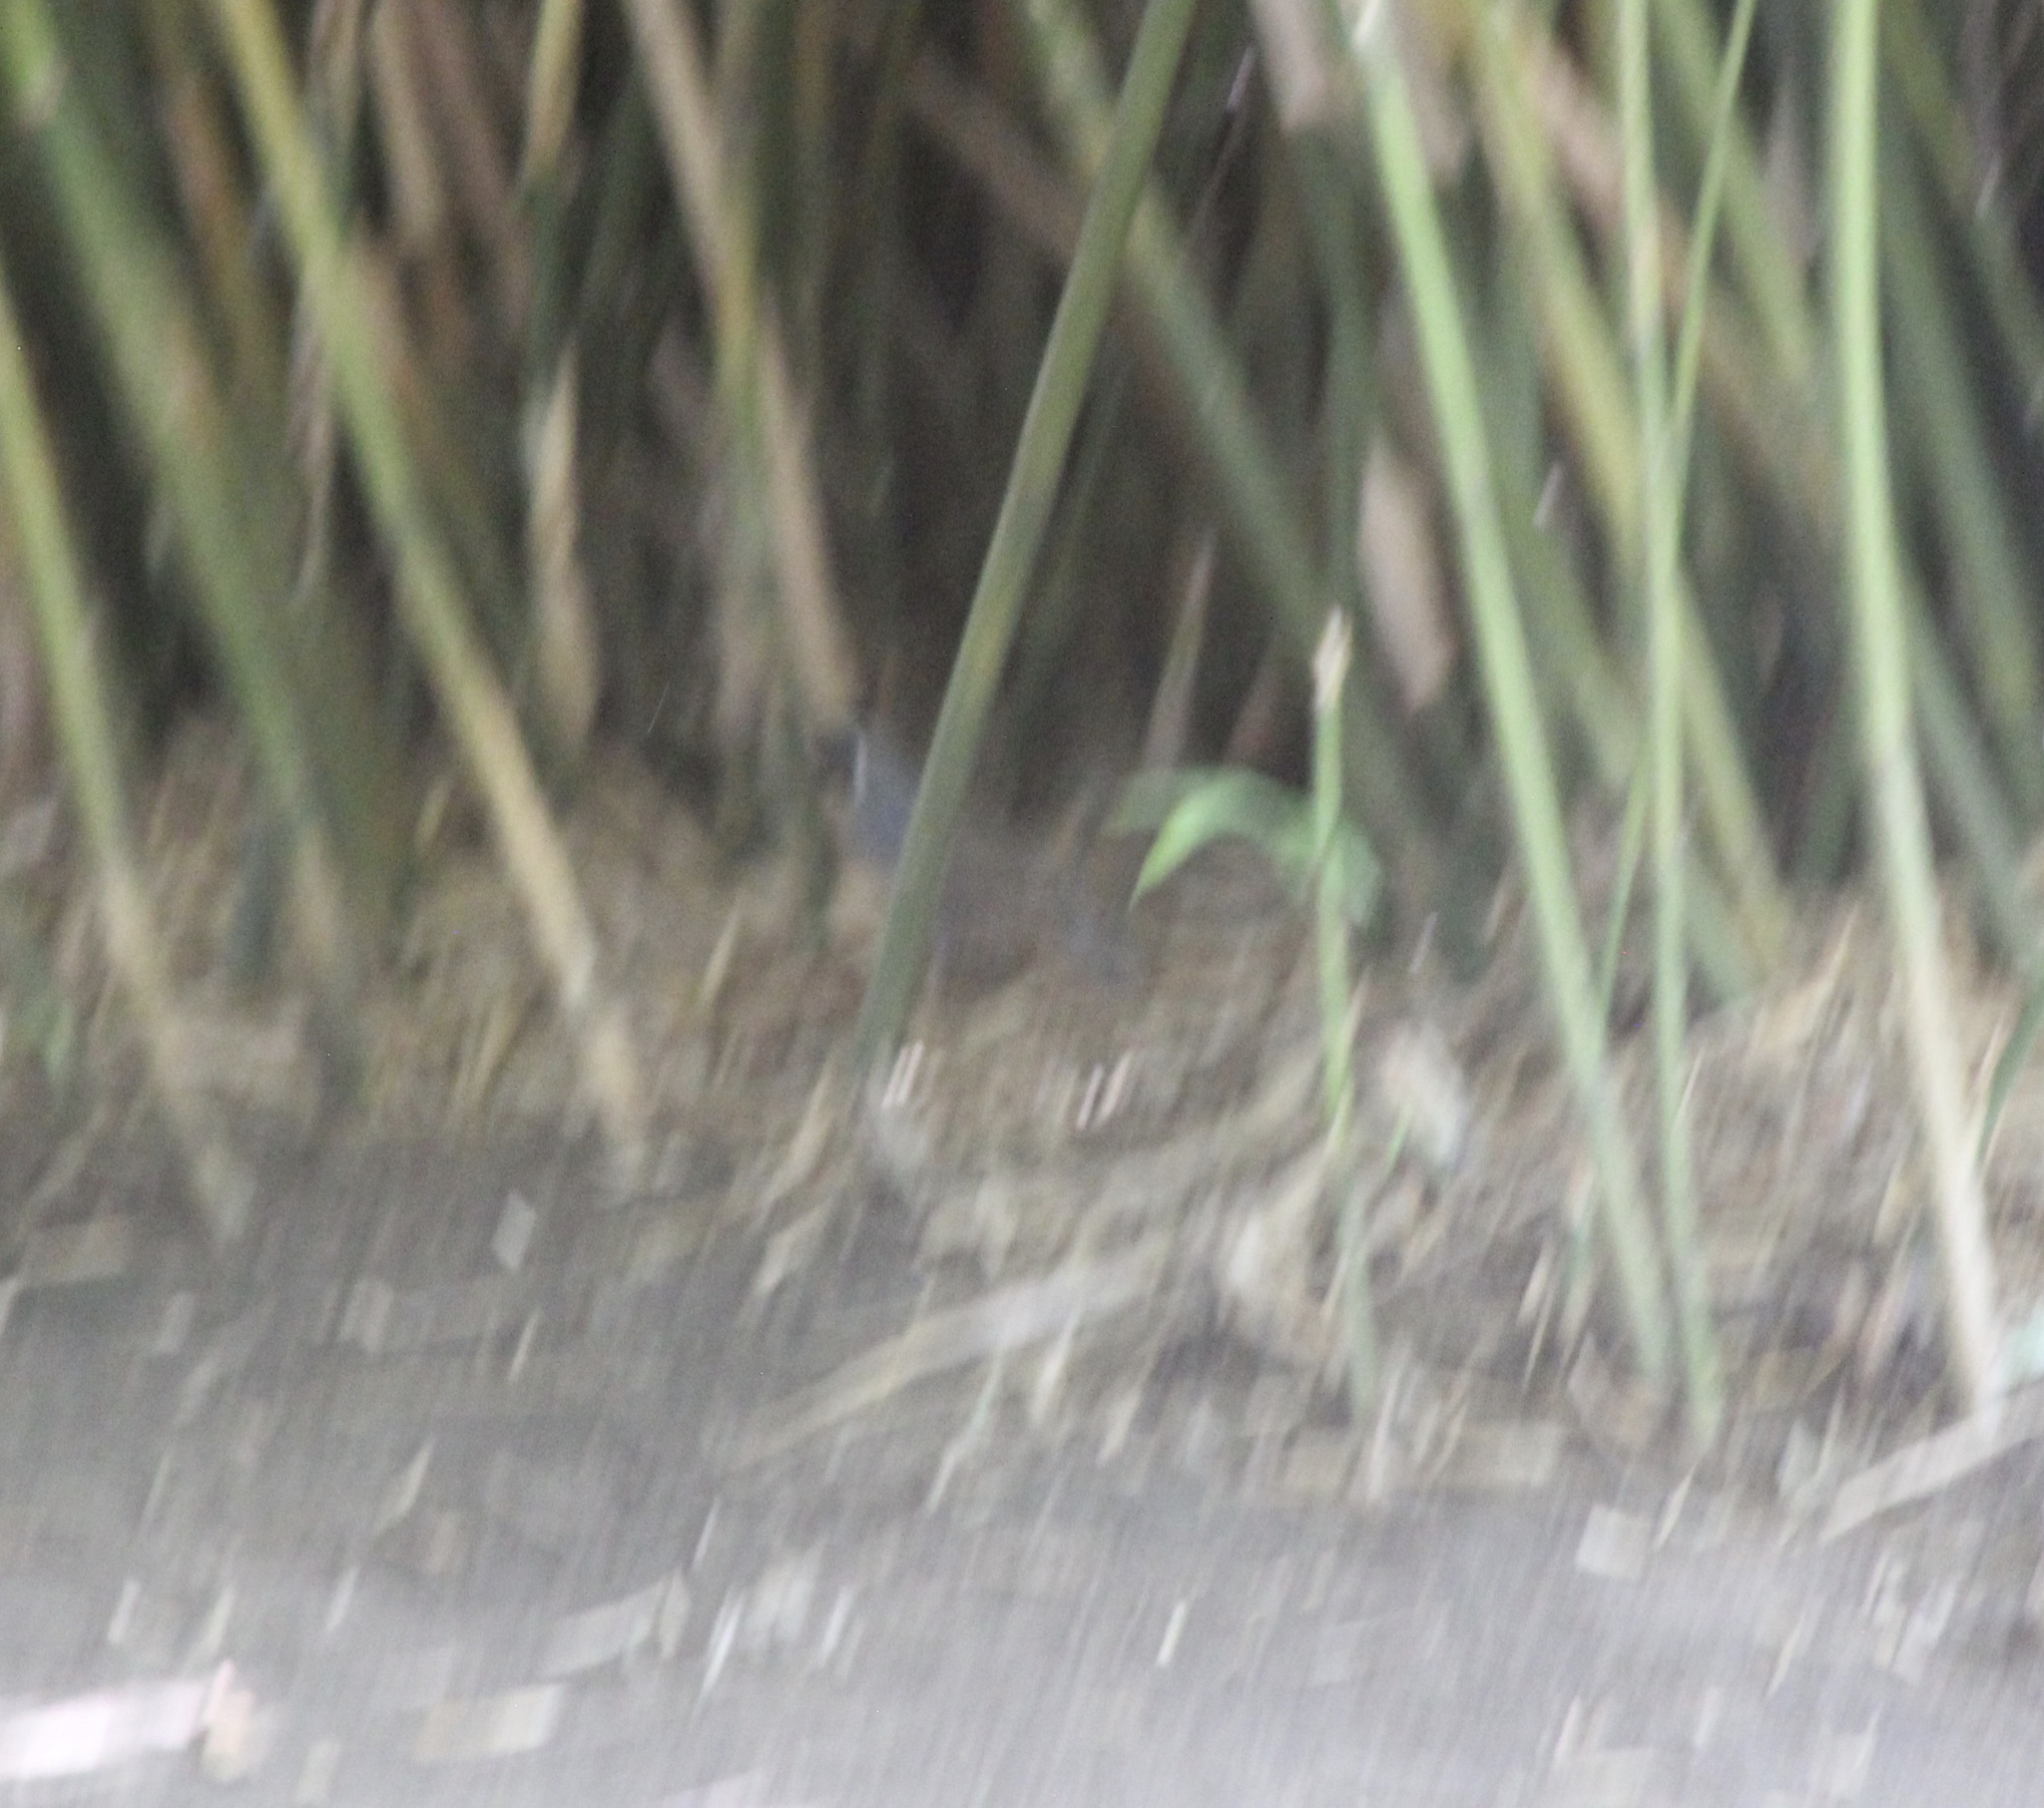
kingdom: Animalia
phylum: Chordata
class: Aves
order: Galliformes
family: Odontophoridae
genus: Callipepla
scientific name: Callipepla californica
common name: California quail
